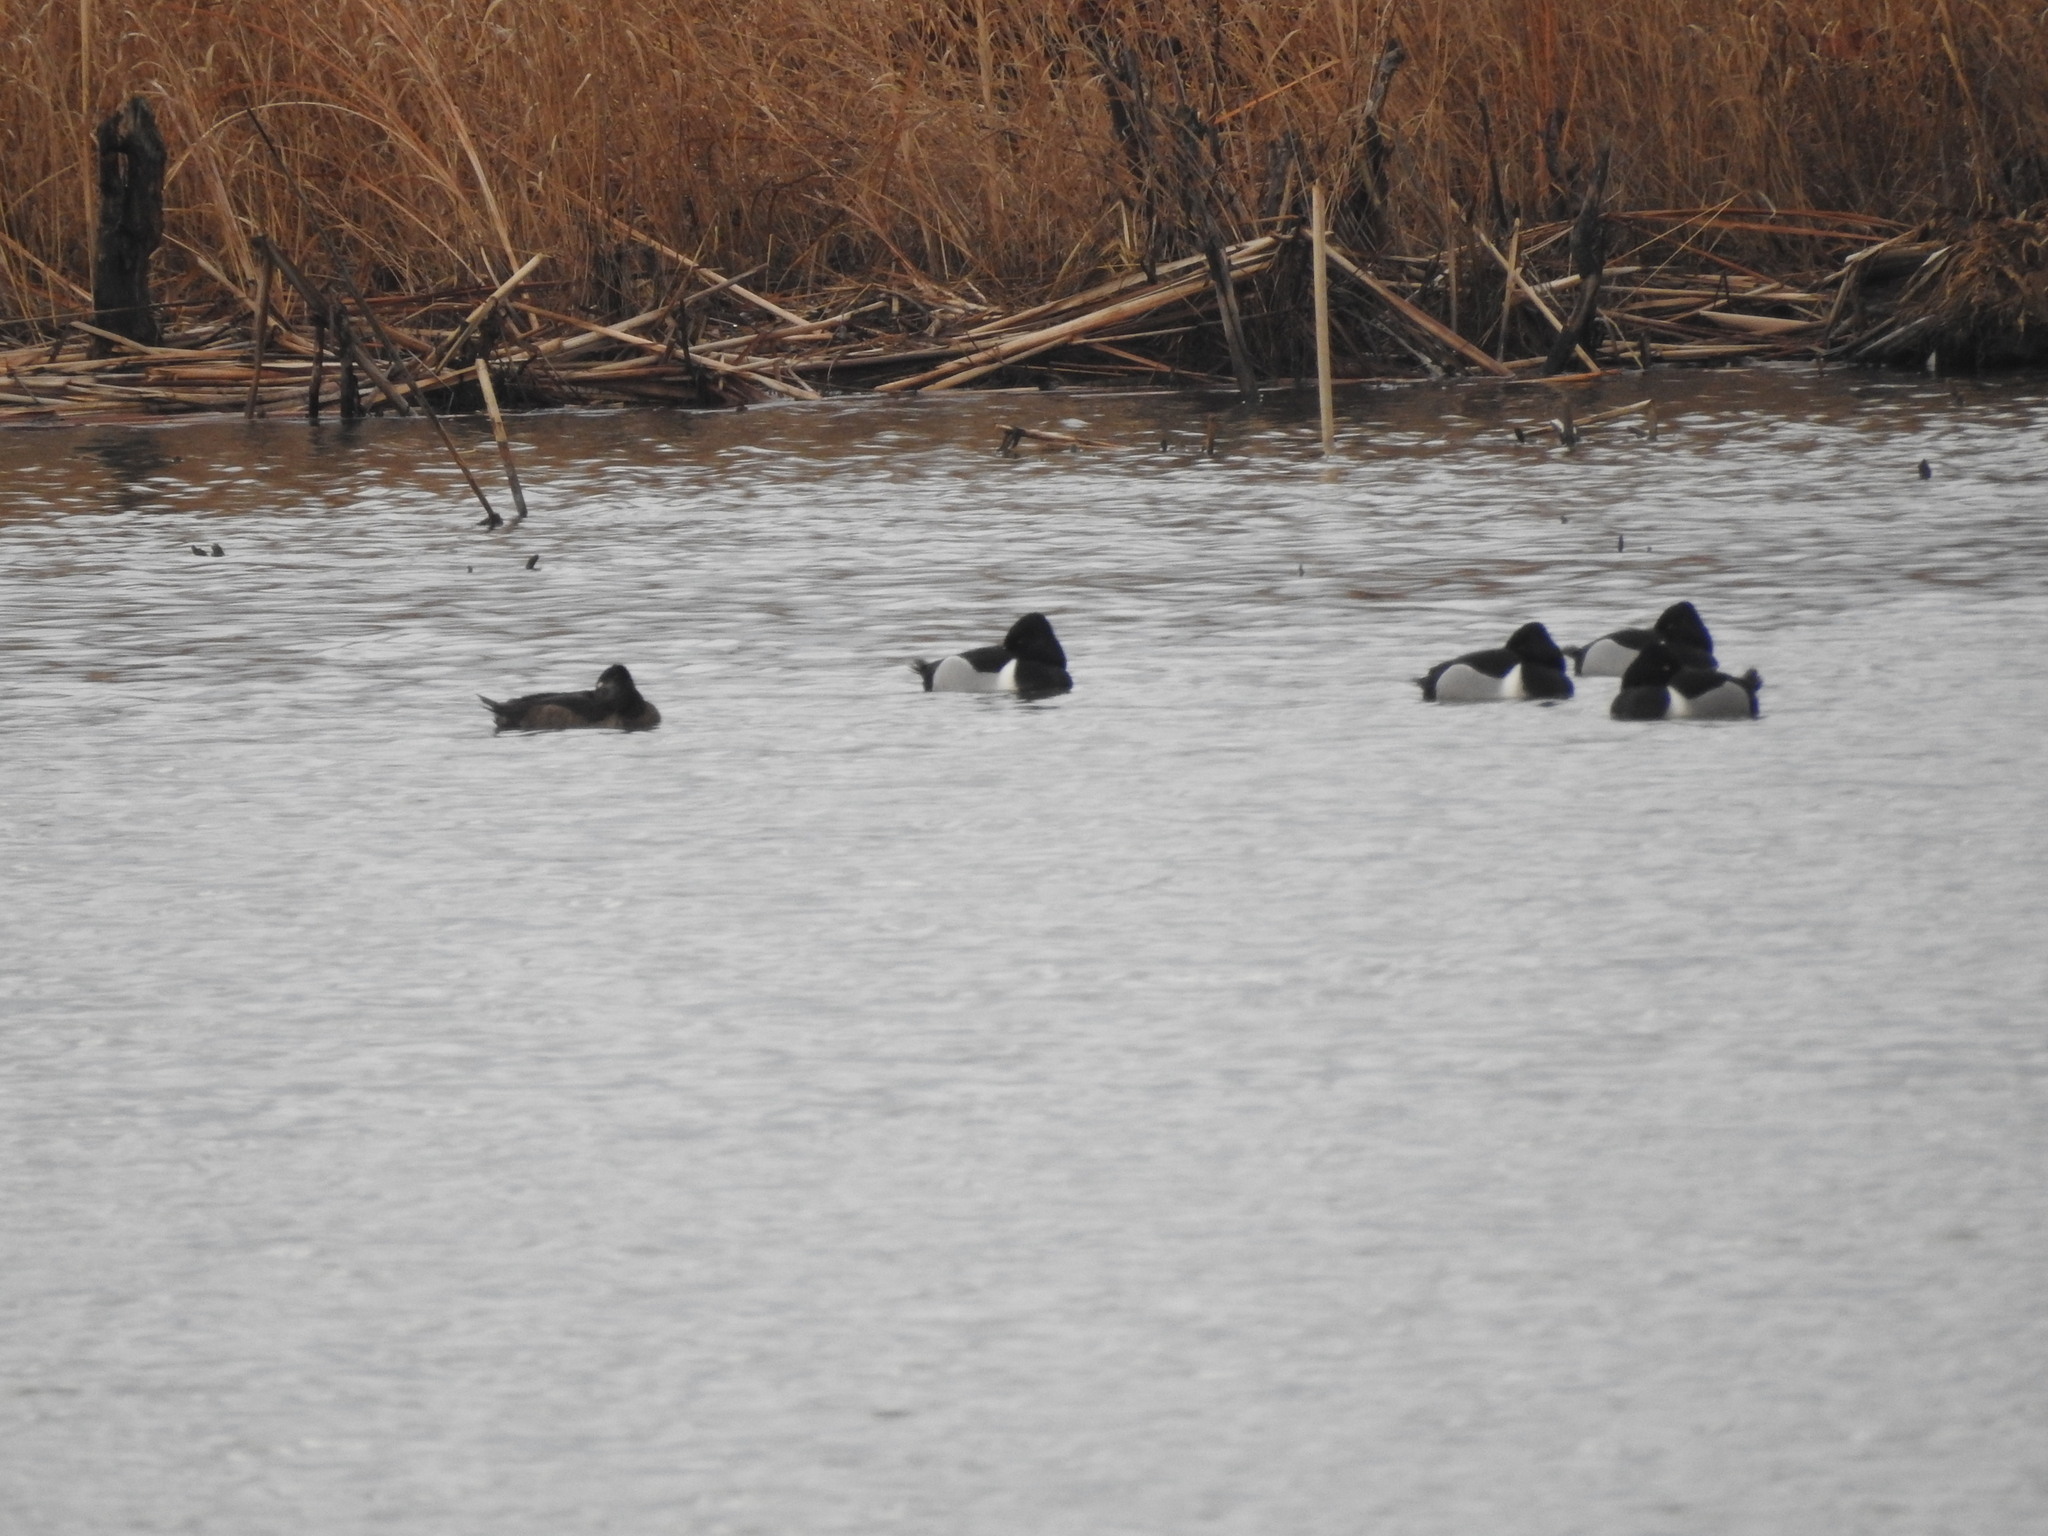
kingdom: Animalia
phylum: Chordata
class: Aves
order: Anseriformes
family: Anatidae
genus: Aythya
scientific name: Aythya collaris
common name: Ring-necked duck
